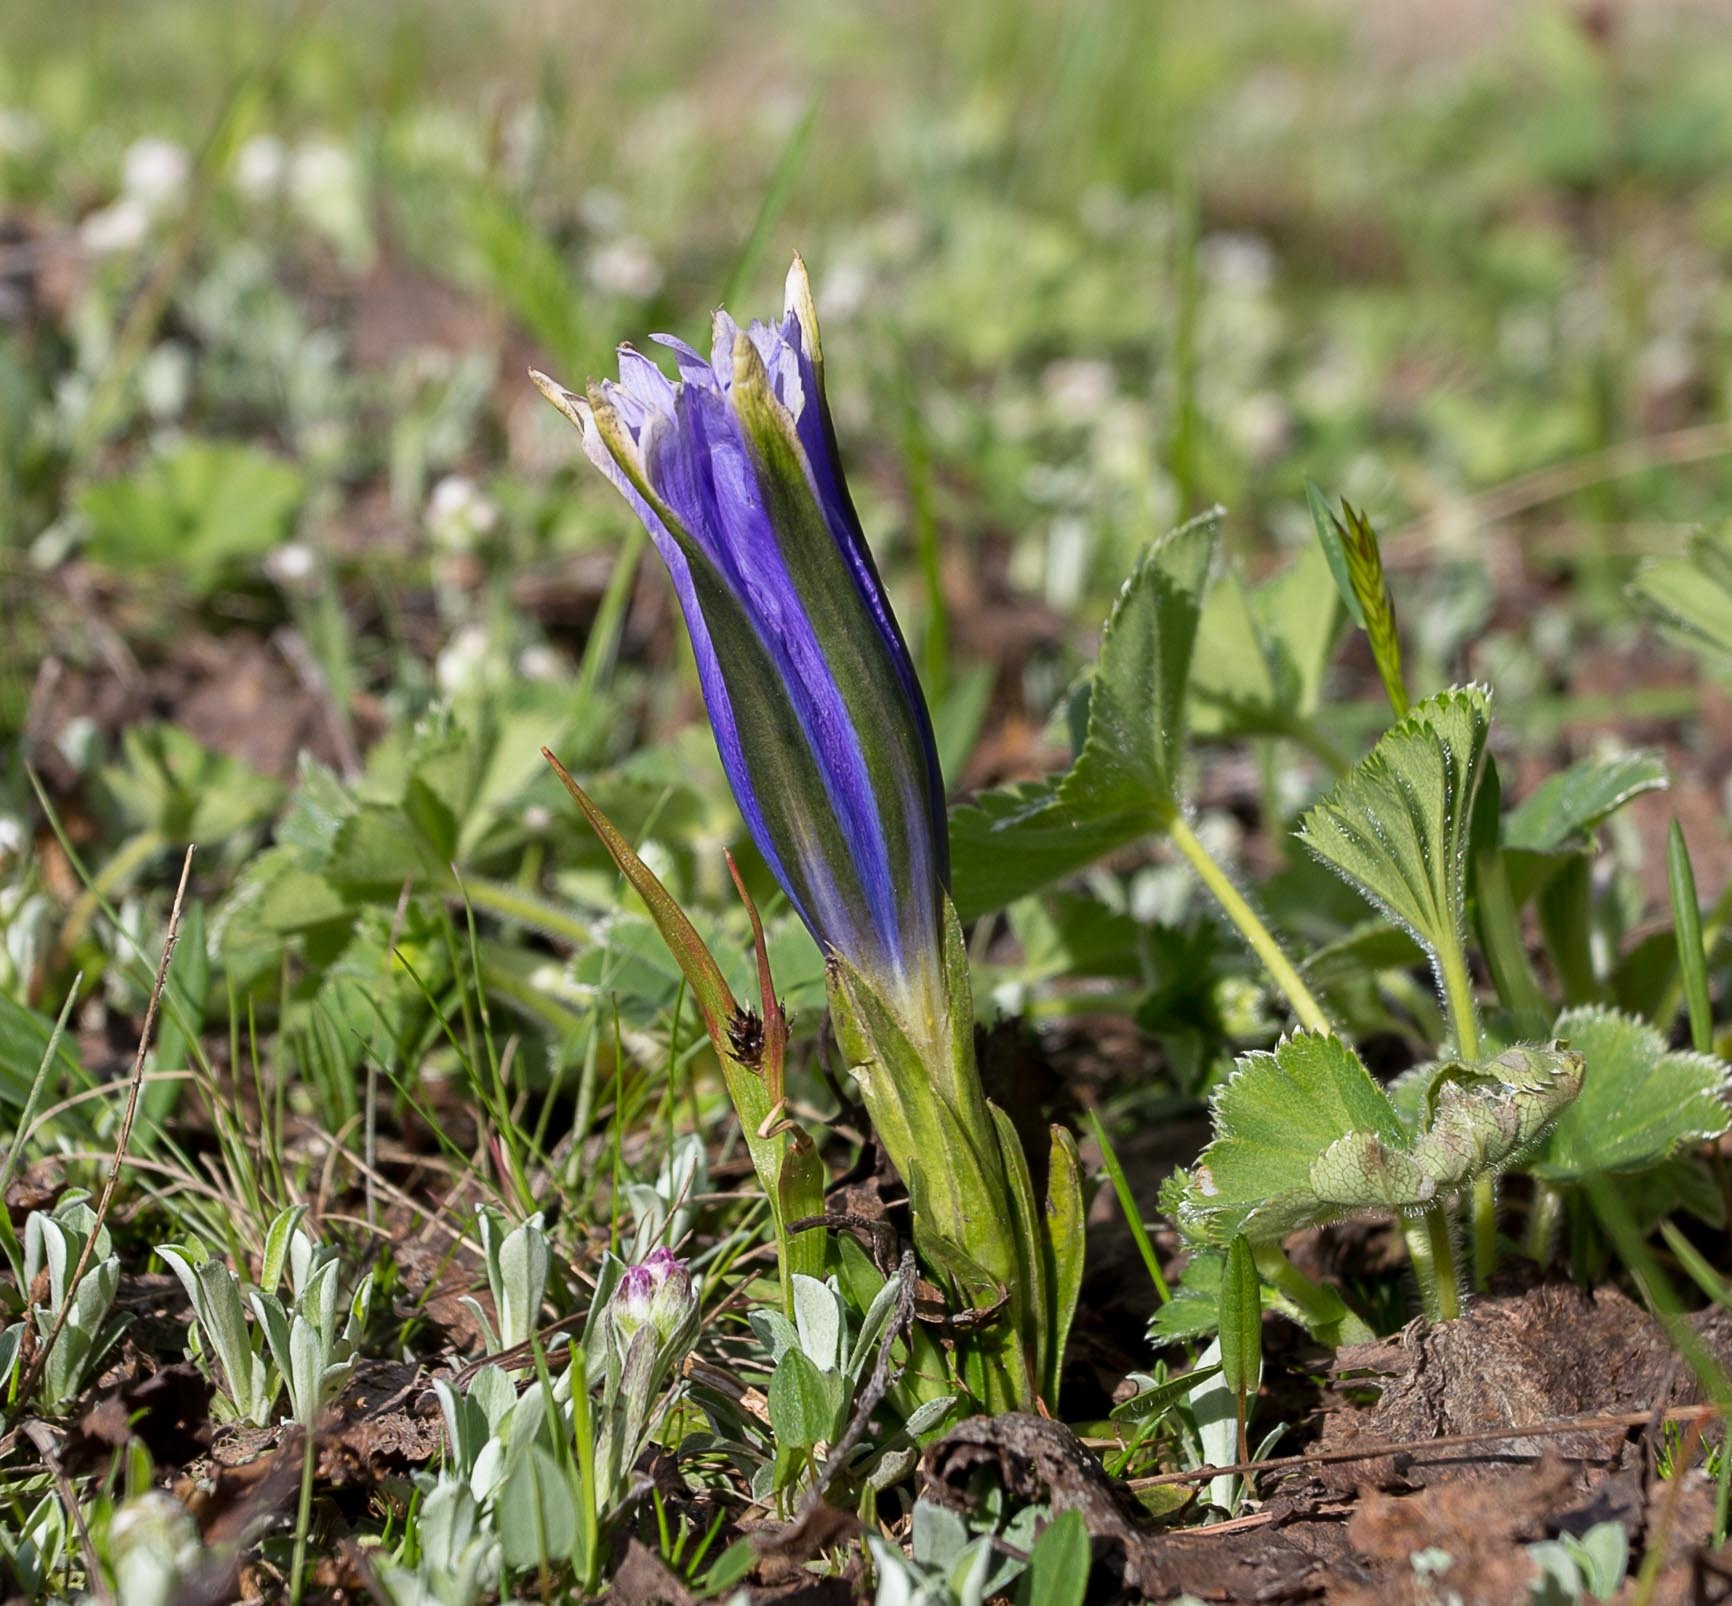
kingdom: Plantae
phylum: Tracheophyta
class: Magnoliopsida
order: Gentianales
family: Gentianaceae
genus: Gentiana
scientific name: Gentiana grandiflora
